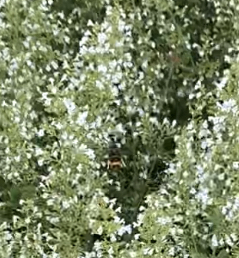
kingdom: Animalia
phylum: Arthropoda
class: Insecta
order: Hymenoptera
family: Vespidae
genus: Vespa
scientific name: Vespa velutina
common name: Asian hornet
